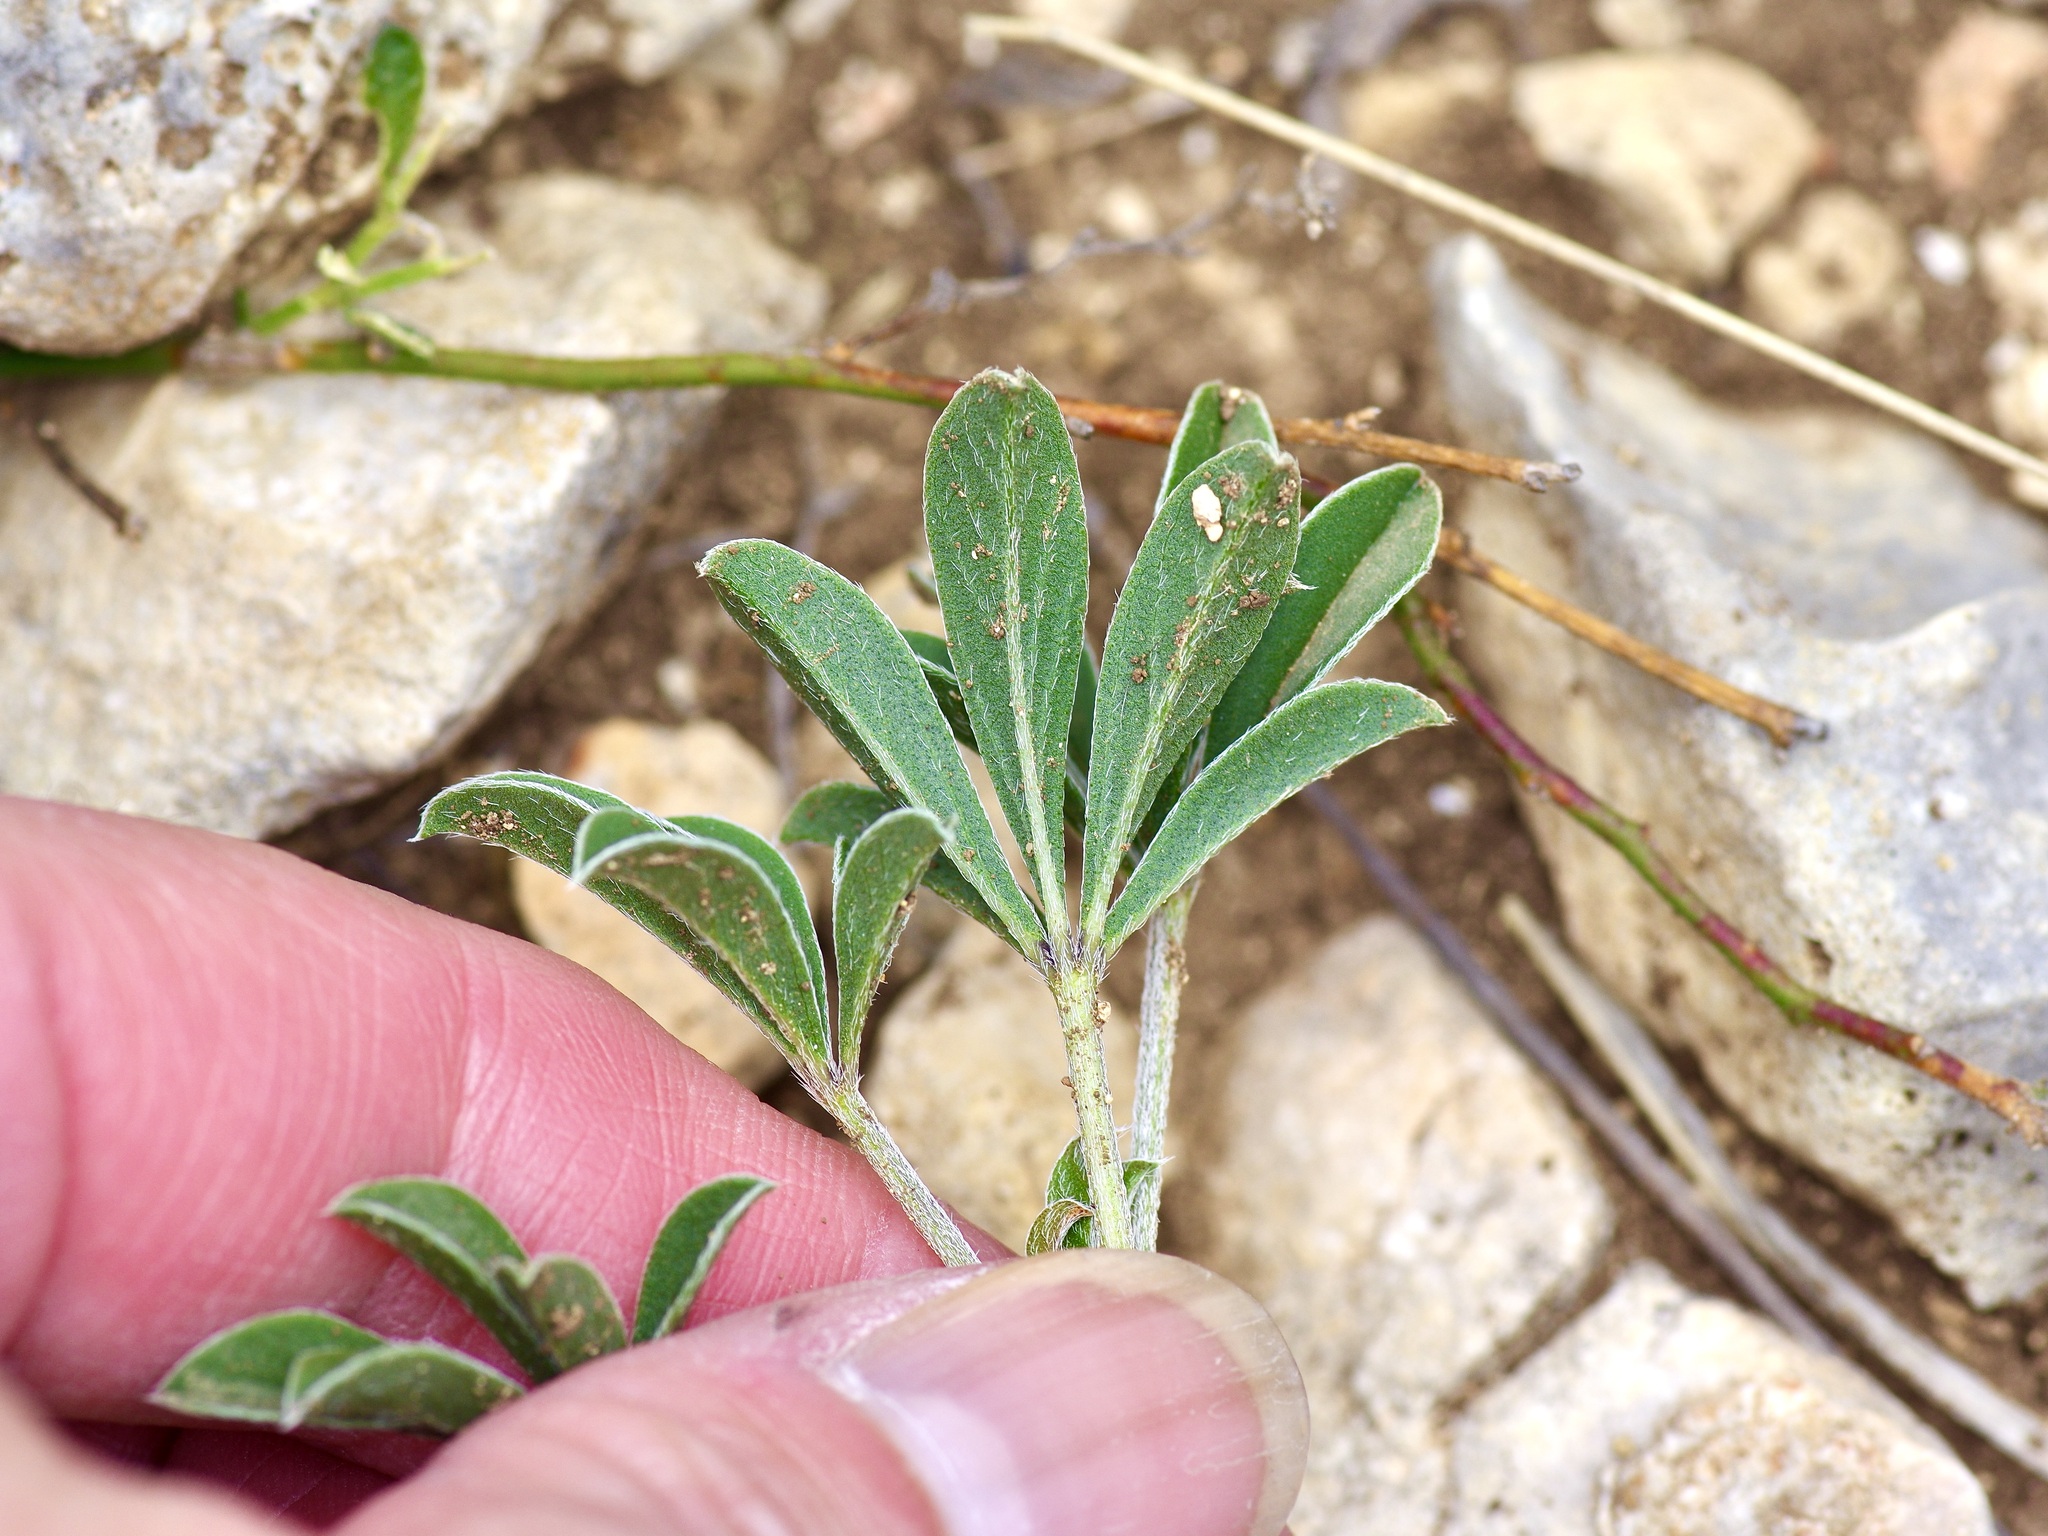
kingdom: Plantae
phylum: Tracheophyta
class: Magnoliopsida
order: Fabales
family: Fabaceae
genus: Pediomelum
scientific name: Pediomelum latestipulatum
